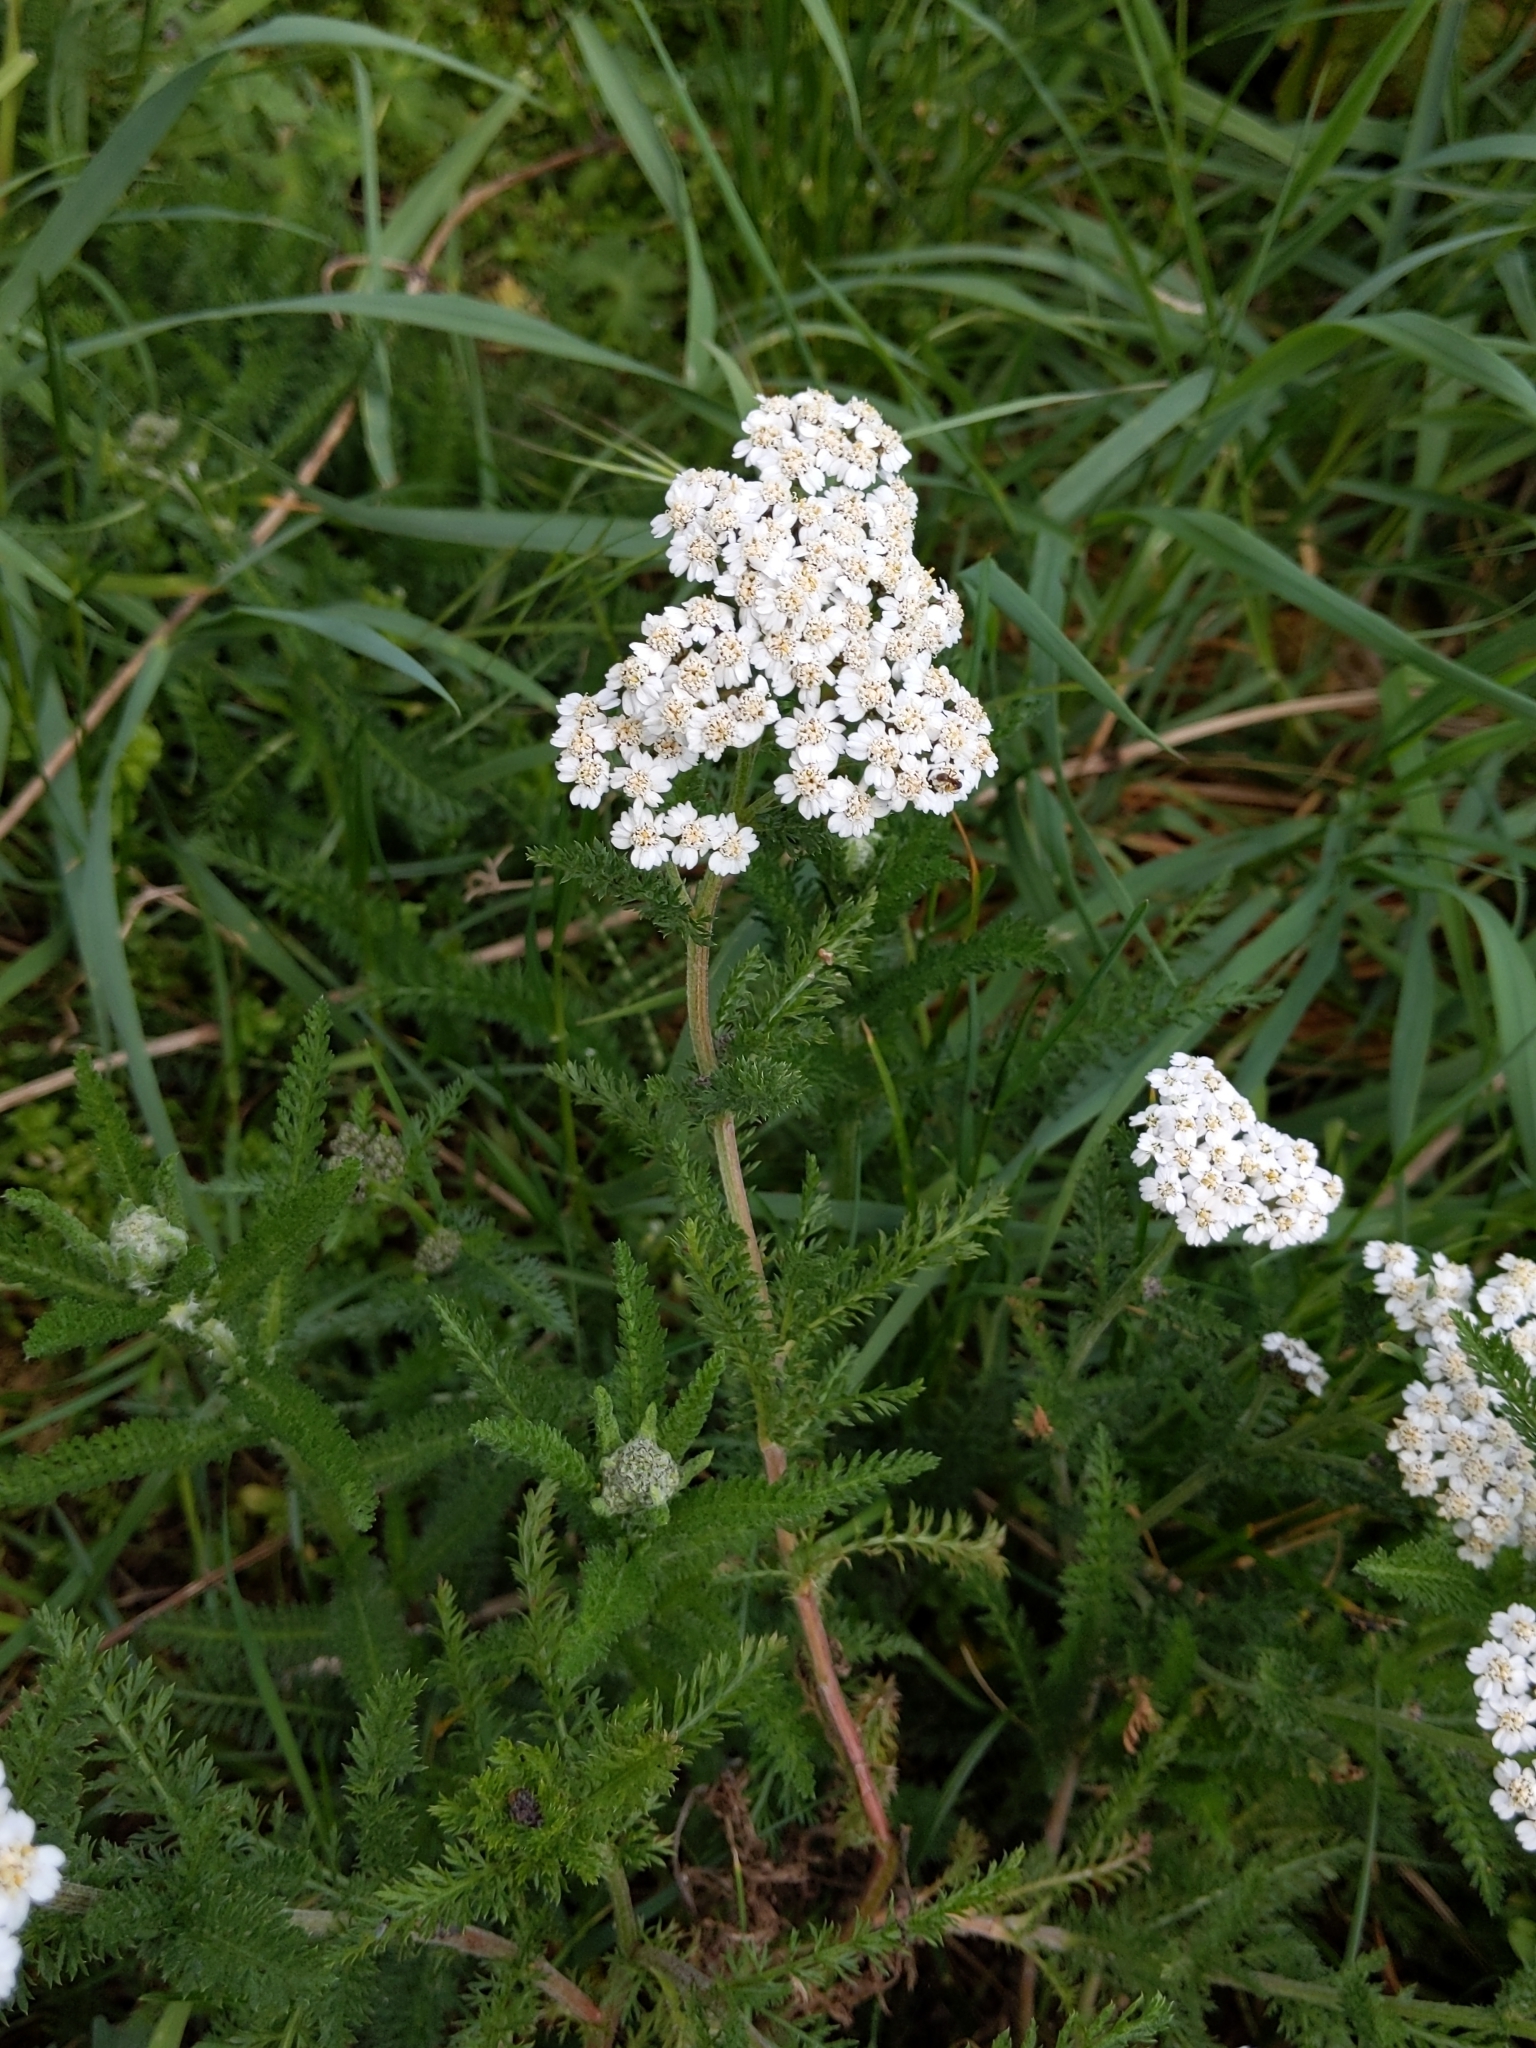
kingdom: Plantae
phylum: Tracheophyta
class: Magnoliopsida
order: Asterales
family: Asteraceae
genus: Achillea
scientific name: Achillea millefolium
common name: Yarrow
